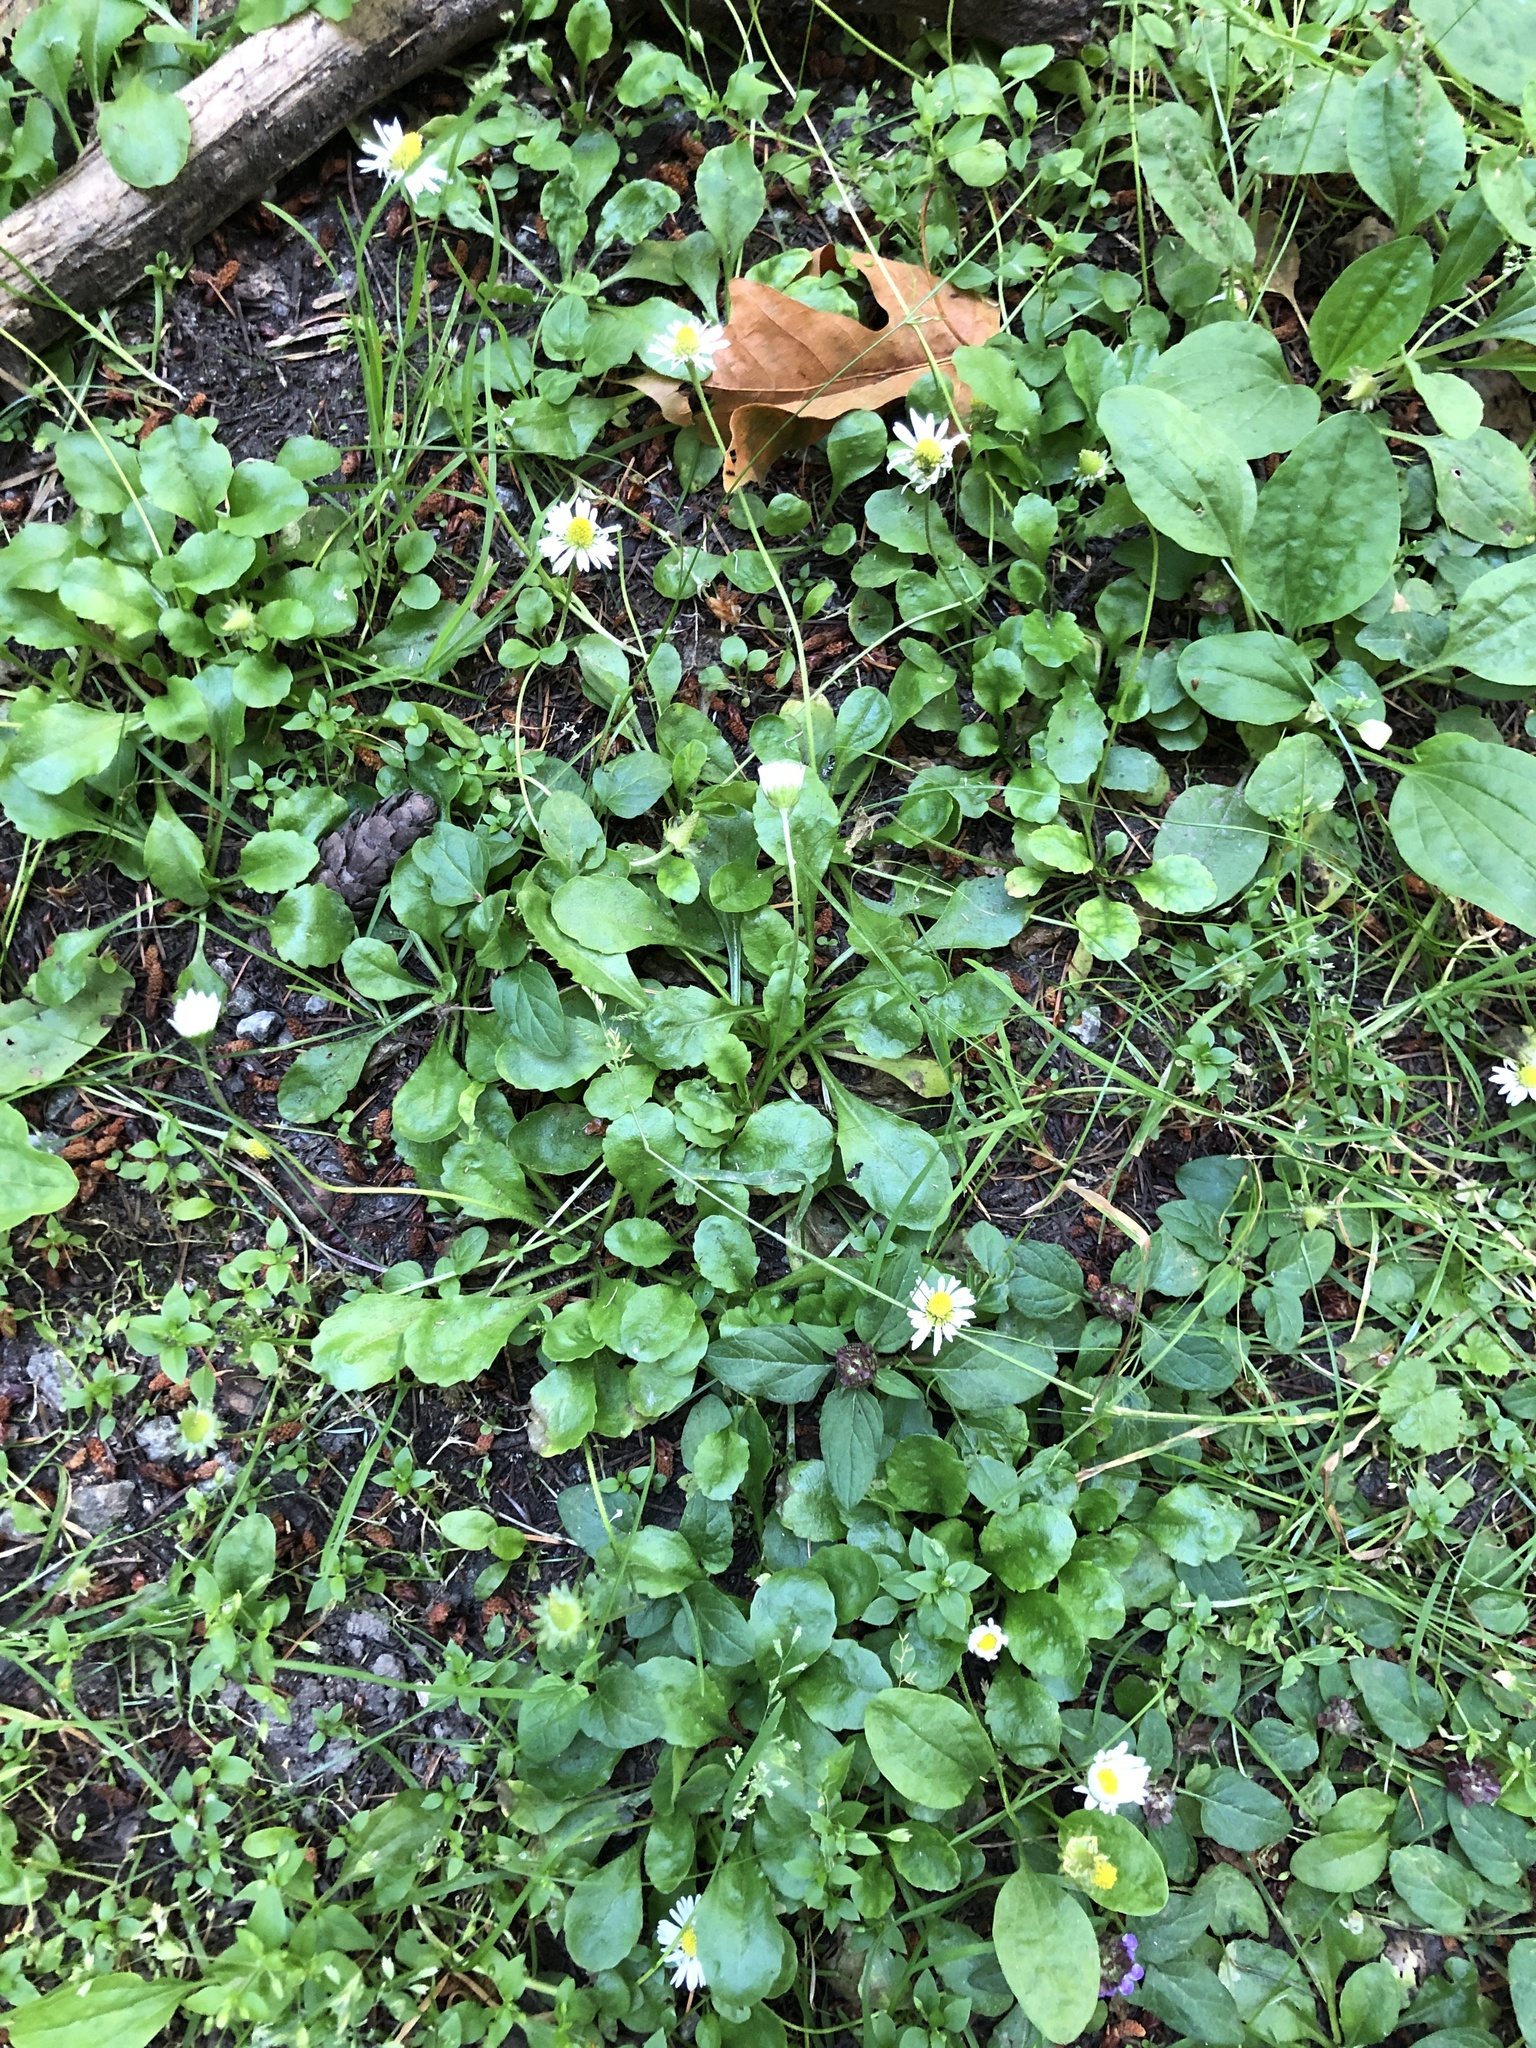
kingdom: Plantae
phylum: Tracheophyta
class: Magnoliopsida
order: Asterales
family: Asteraceae
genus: Bellis
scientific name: Bellis perennis
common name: Lawndaisy
